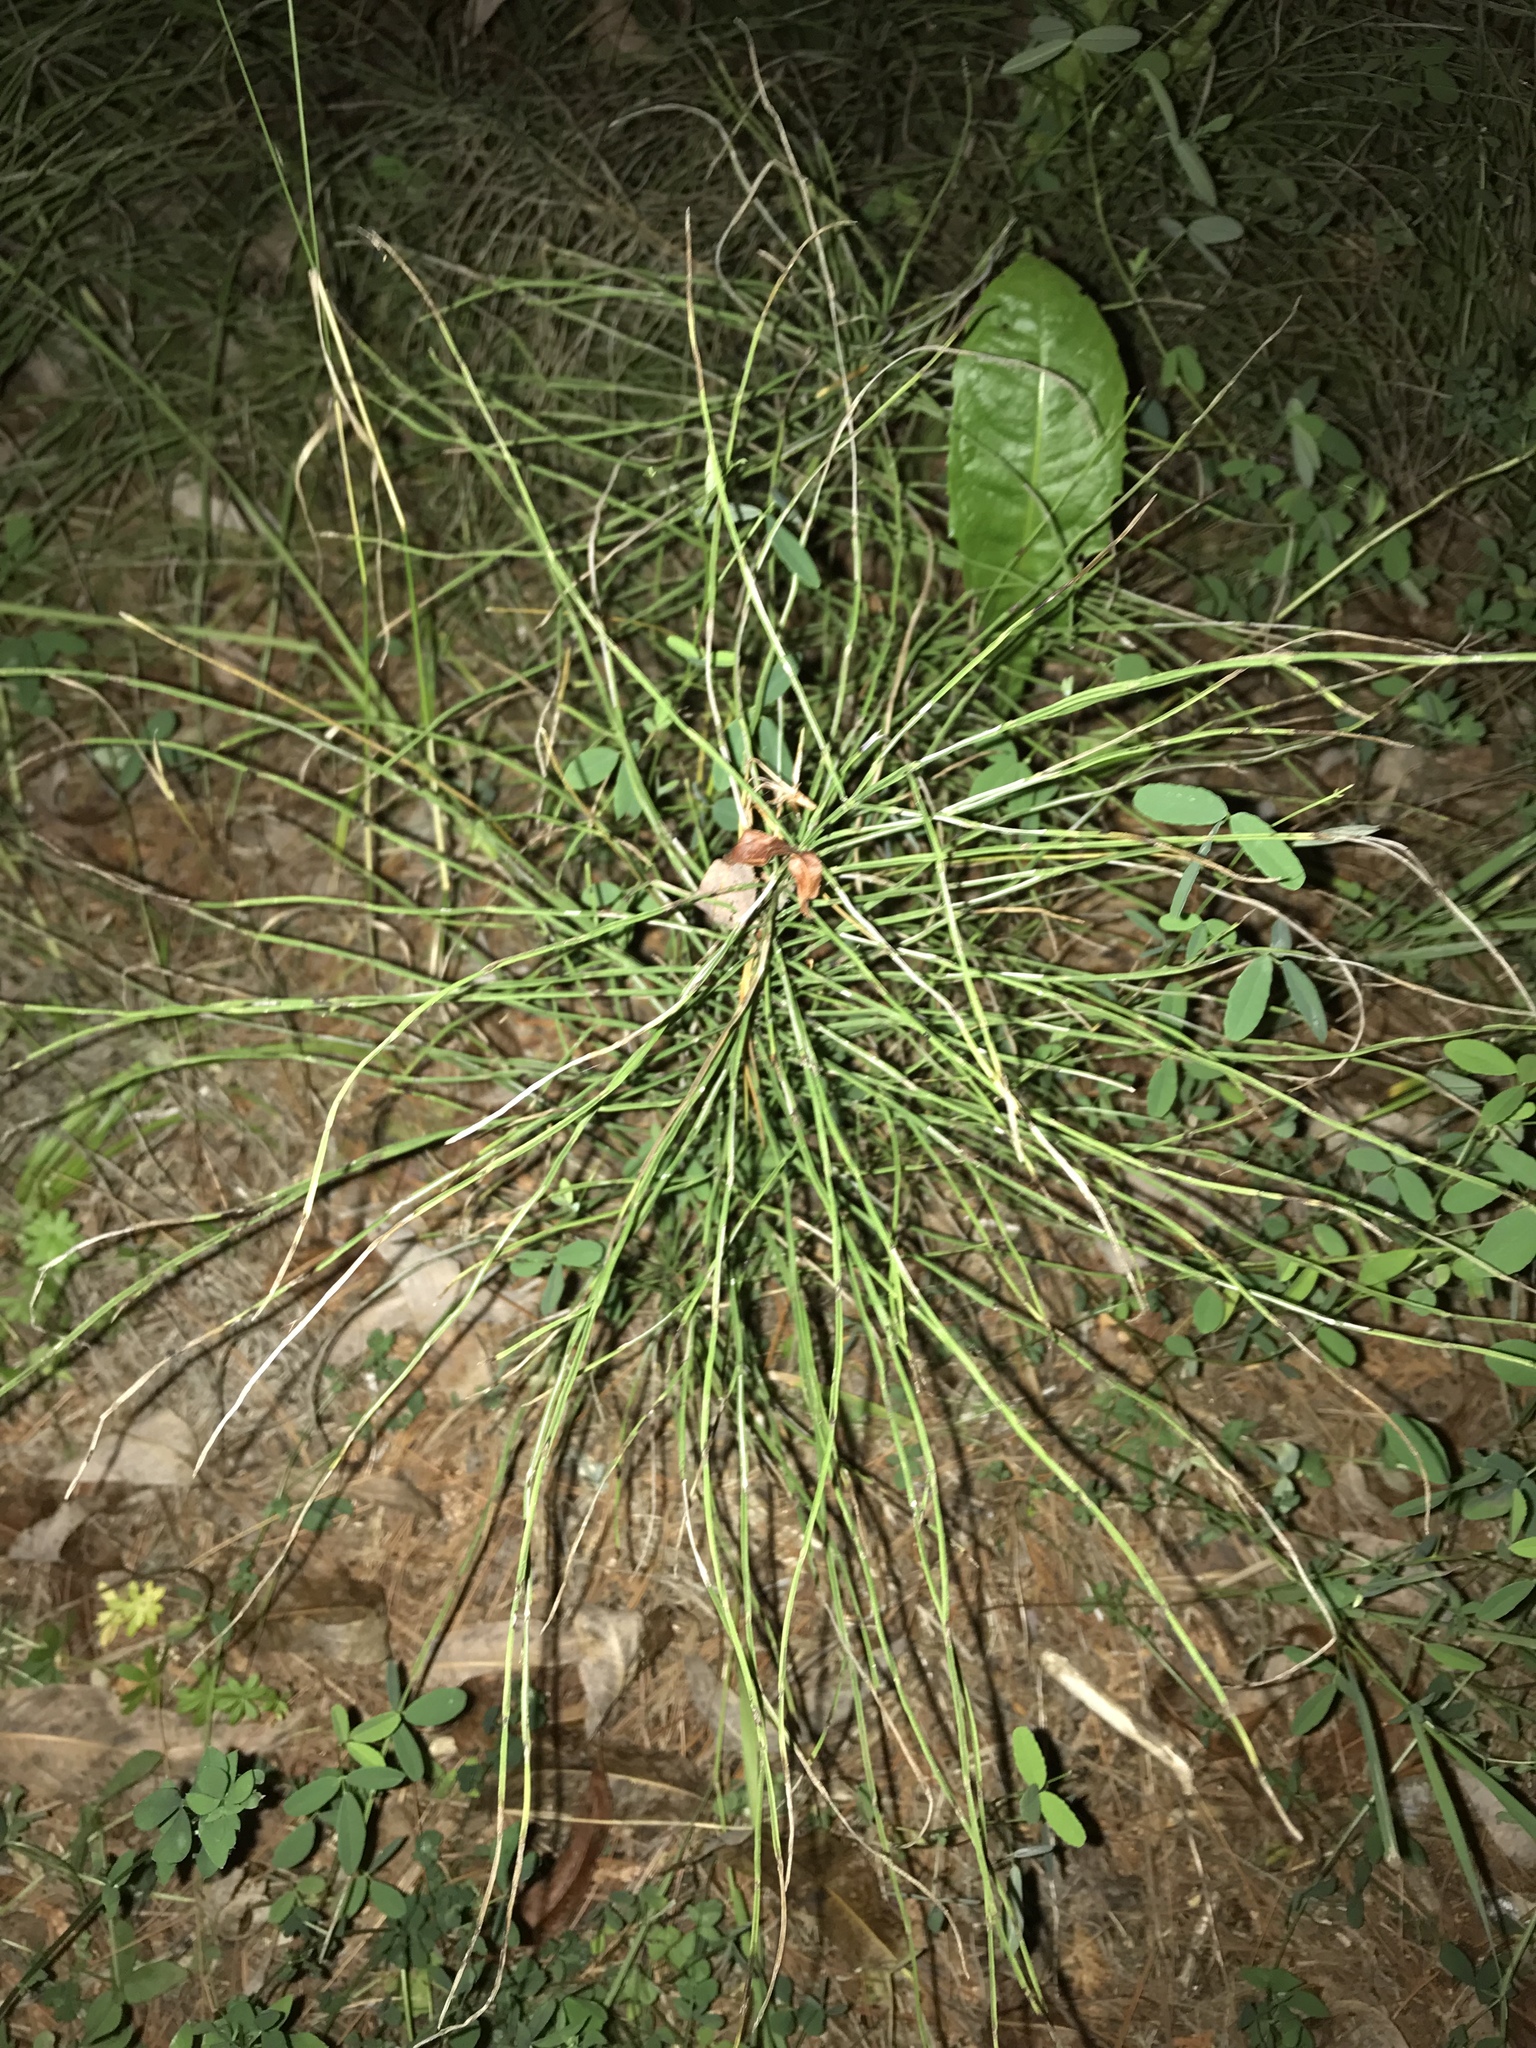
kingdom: Plantae
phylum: Tracheophyta
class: Polypodiopsida
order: Equisetales
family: Equisetaceae
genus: Equisetum
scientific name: Equisetum arvense
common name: Field horsetail
